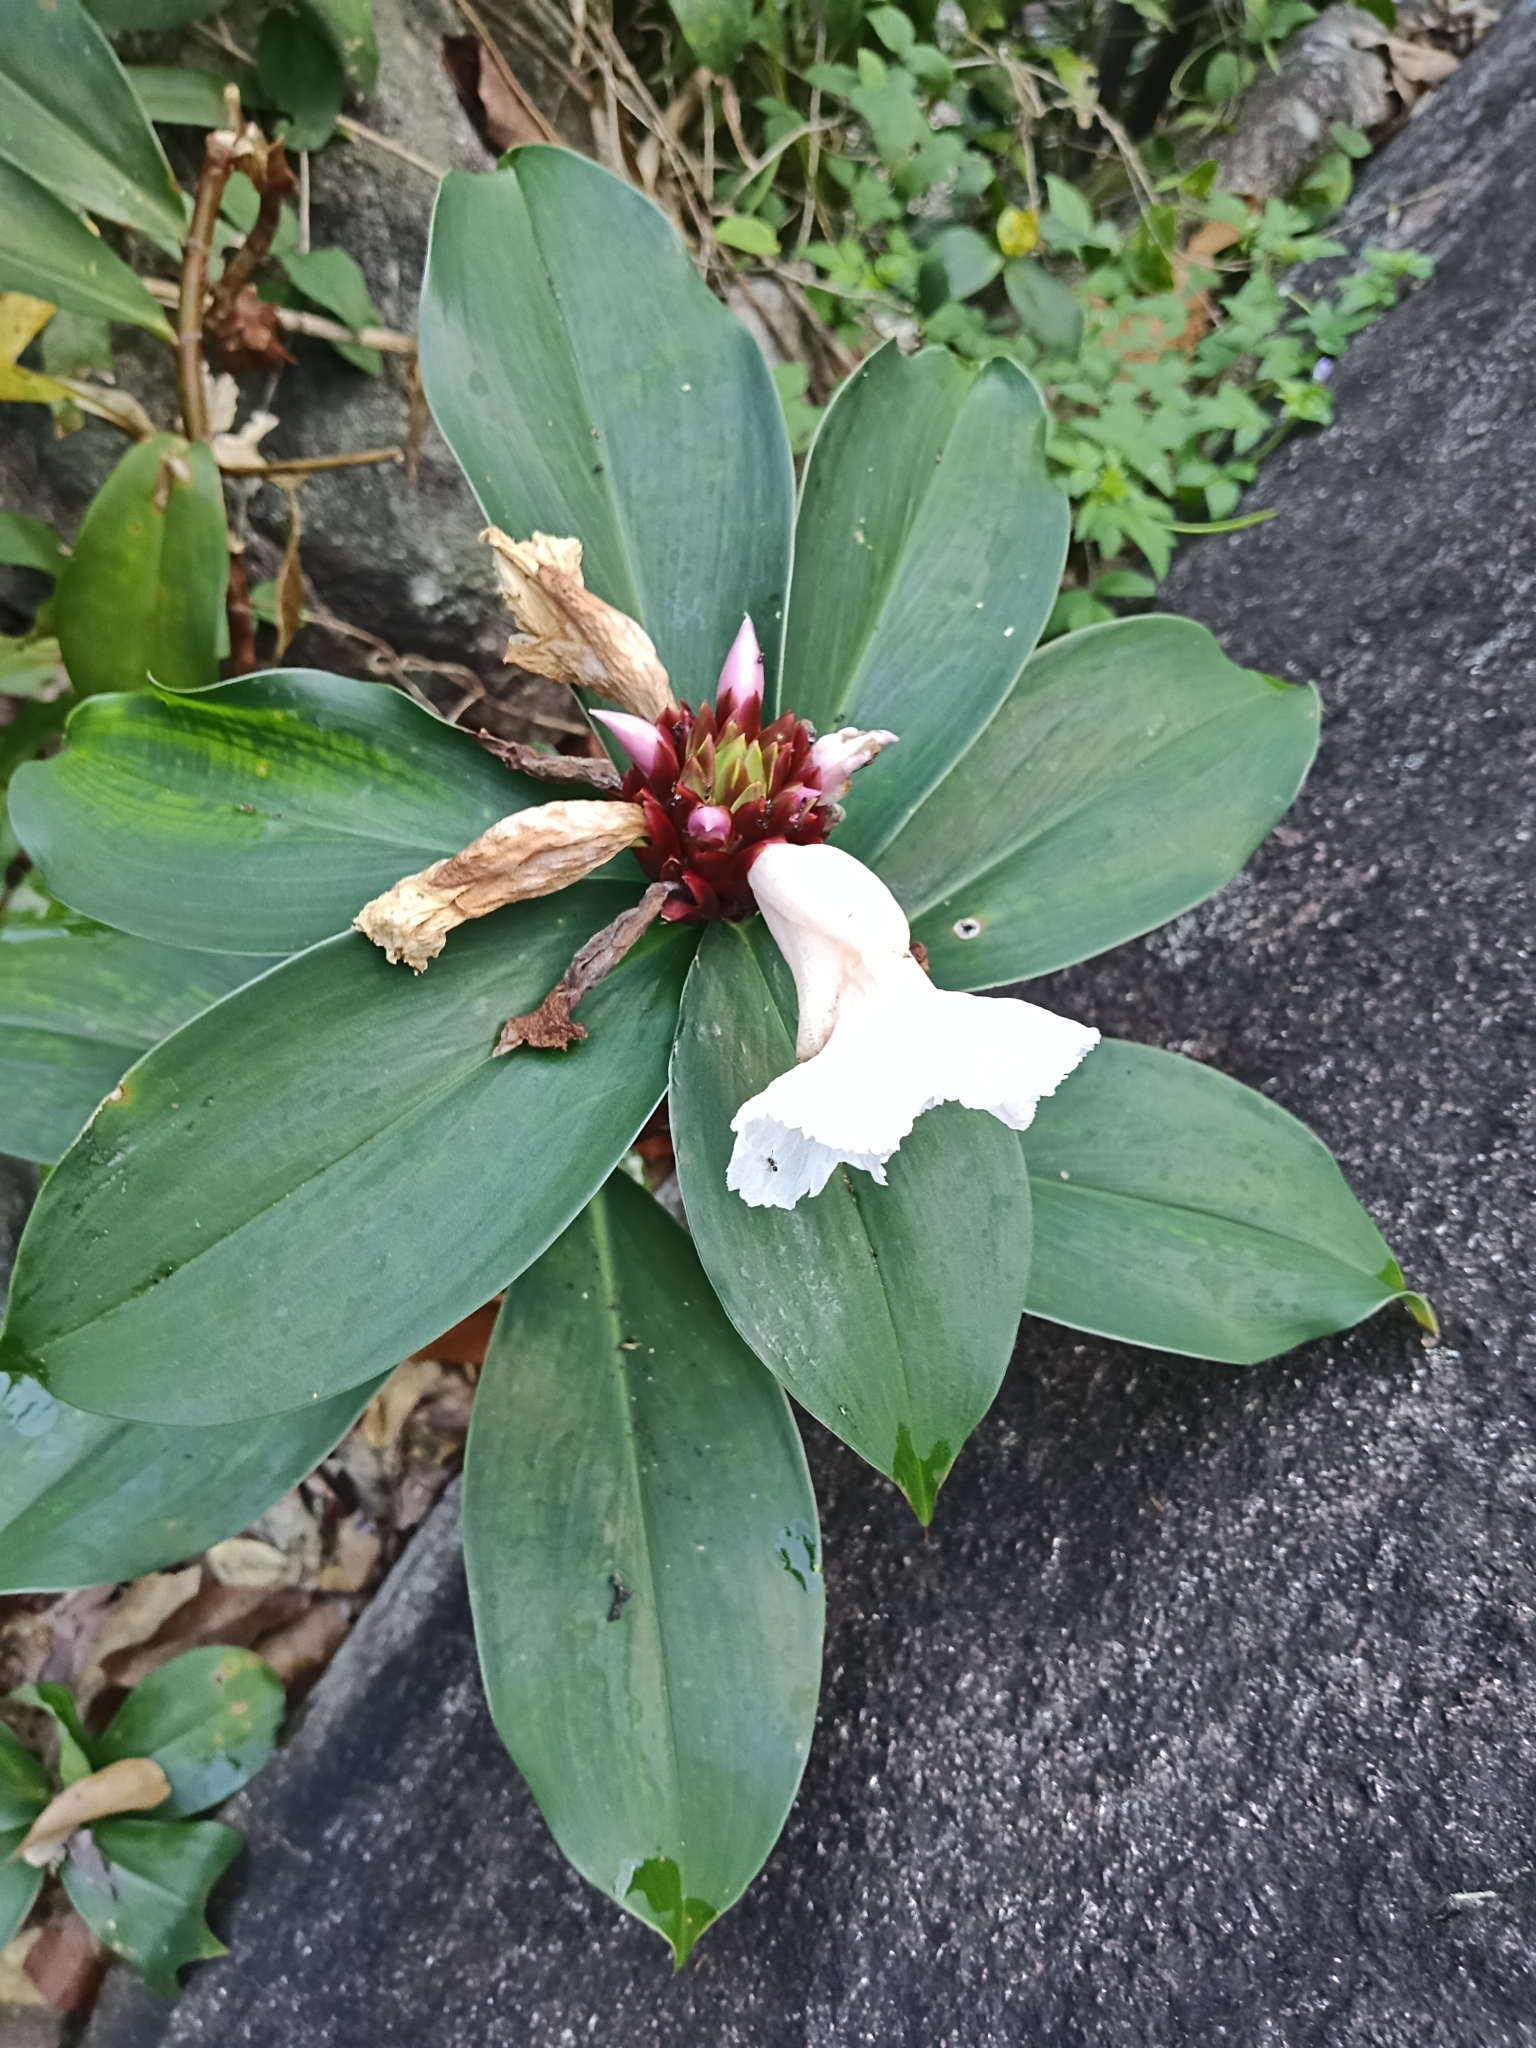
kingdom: Plantae
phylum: Tracheophyta
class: Liliopsida
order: Zingiberales
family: Costaceae
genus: Hellenia
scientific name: Hellenia speciosa
